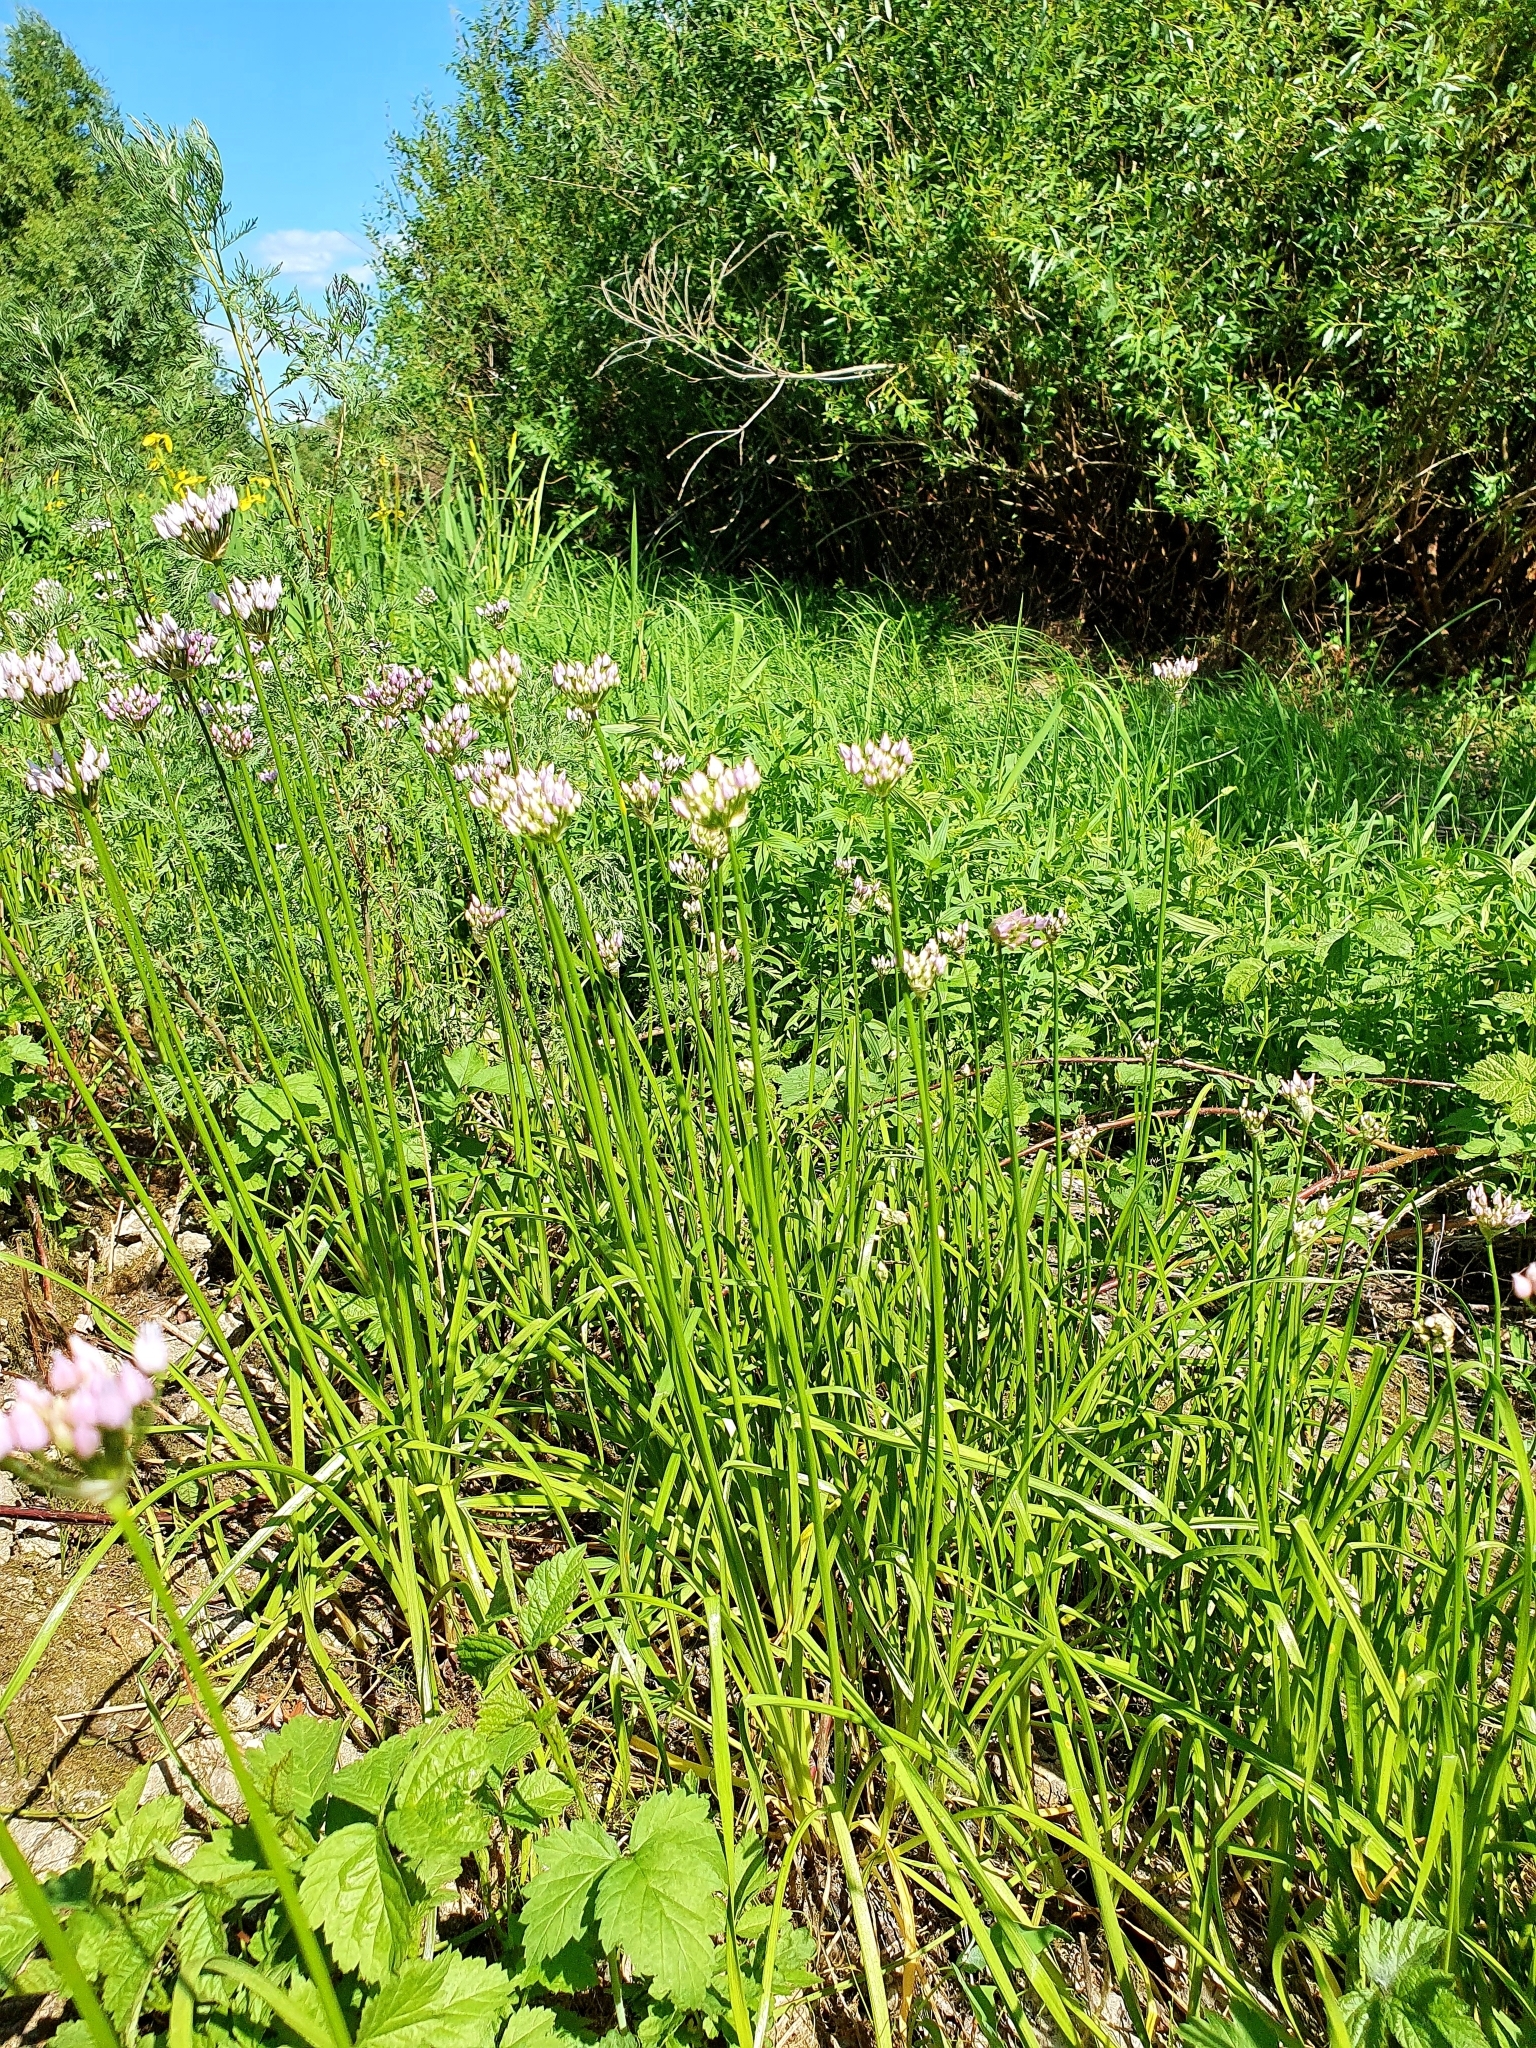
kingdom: Plantae
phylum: Tracheophyta
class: Liliopsida
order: Asparagales
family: Amaryllidaceae
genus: Allium
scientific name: Allium angulosum
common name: Mouse garlic
